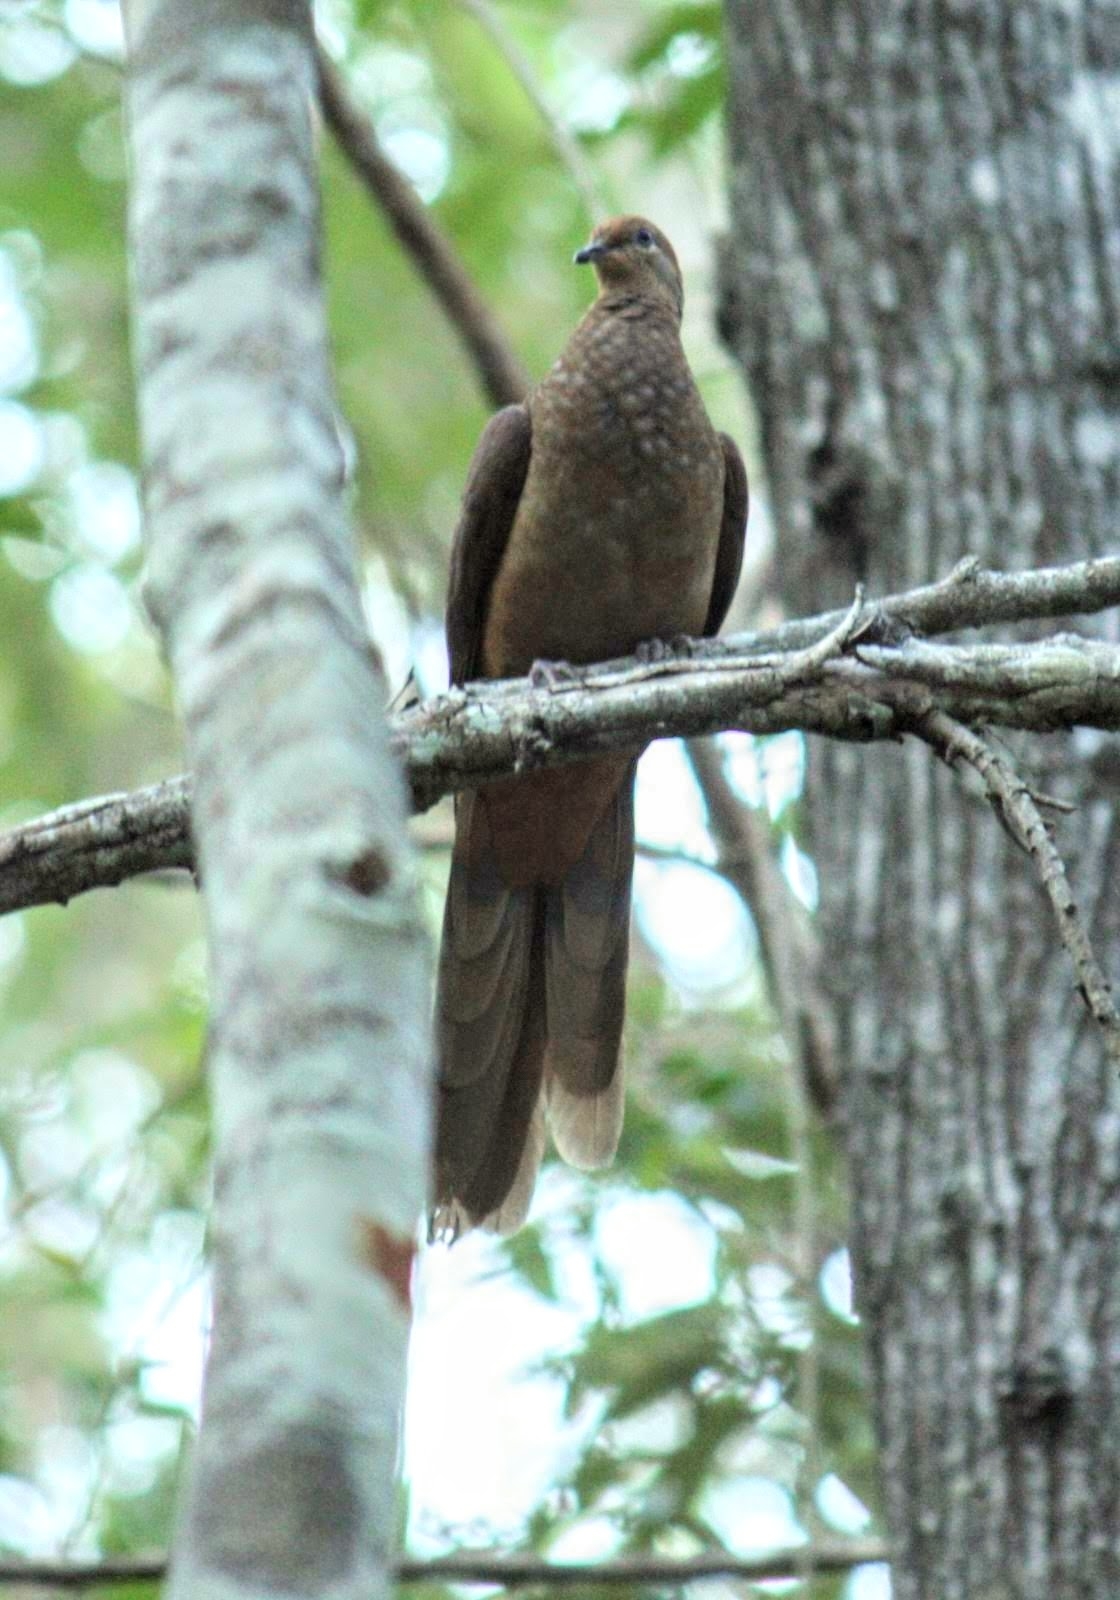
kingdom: Animalia
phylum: Chordata
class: Aves
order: Columbiformes
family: Columbidae
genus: Macropygia
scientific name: Macropygia phasianella
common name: Brown cuckoo-dove
